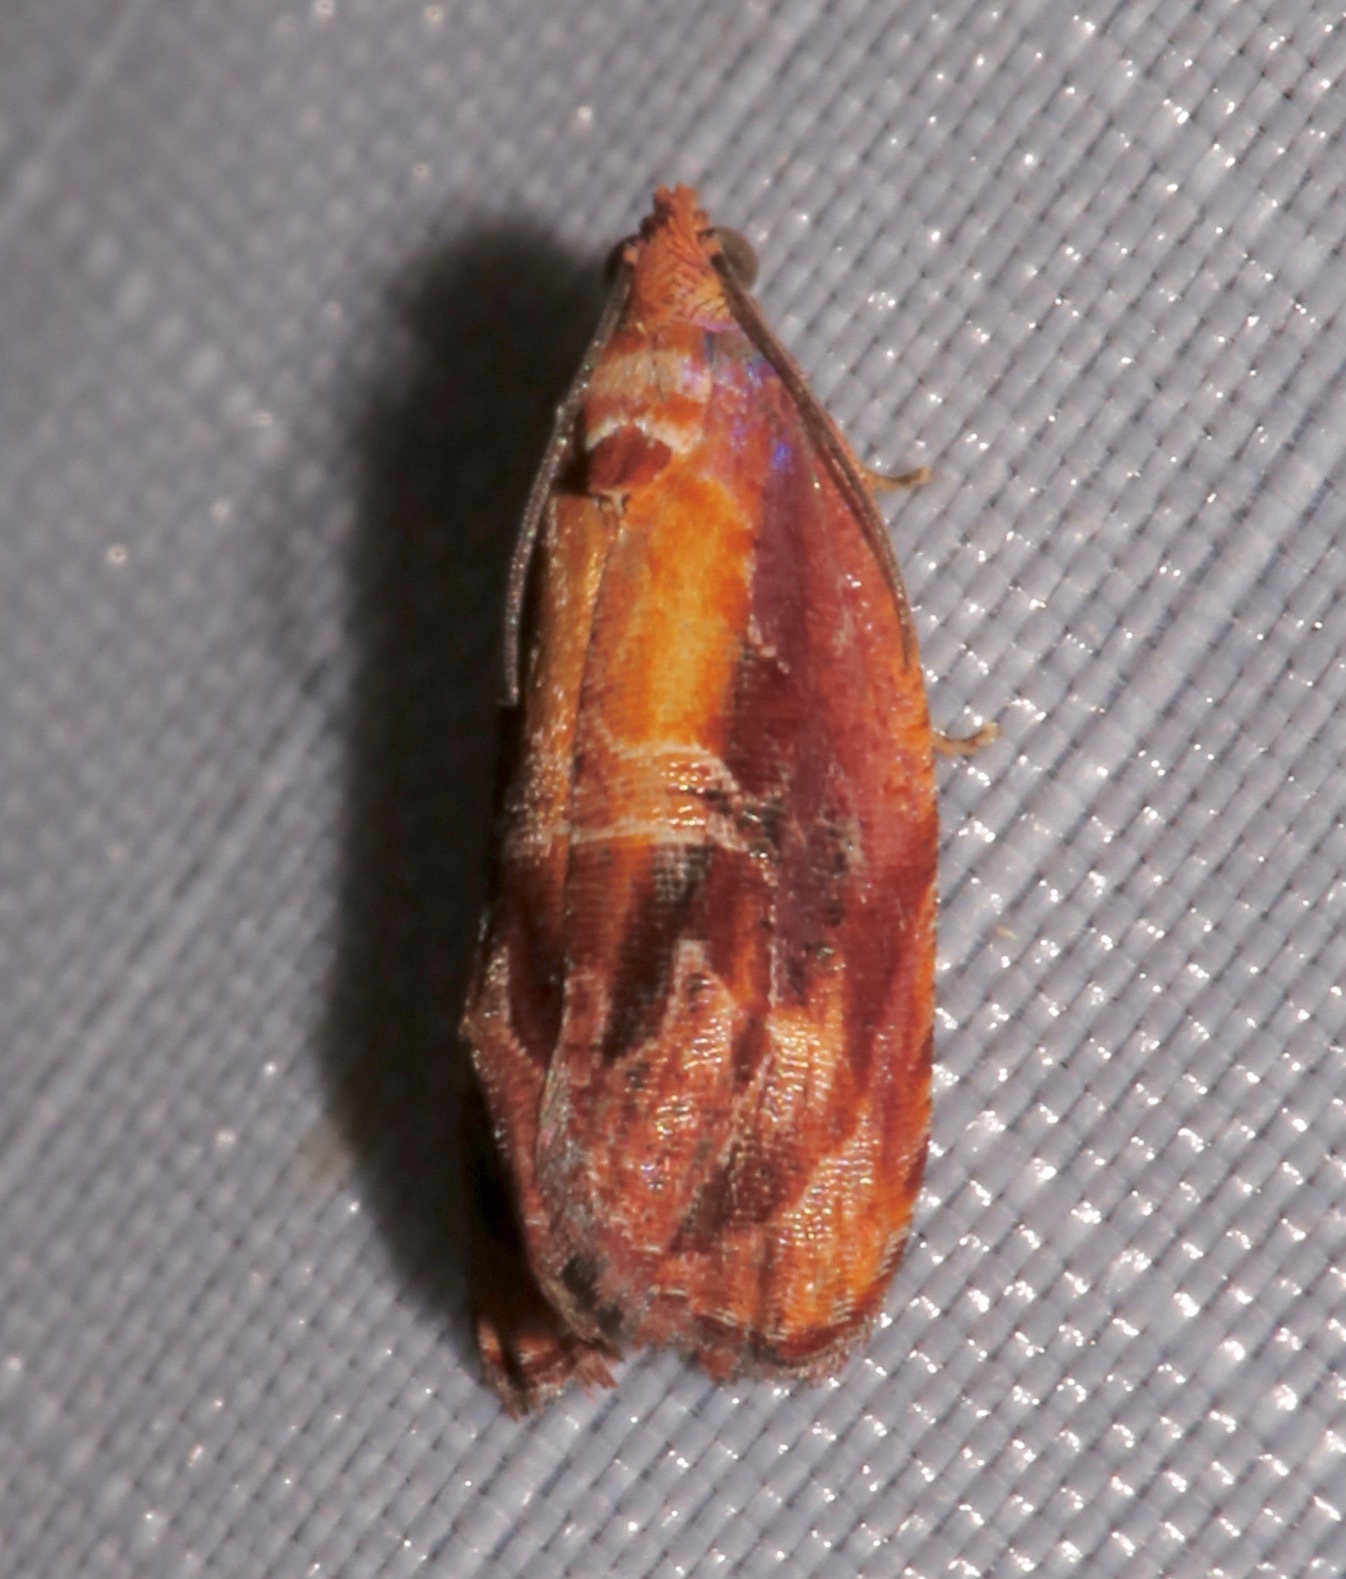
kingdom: Animalia
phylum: Arthropoda
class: Insecta
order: Lepidoptera
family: Tortricidae
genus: Zomaria
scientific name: Zomaria rosaochreana
